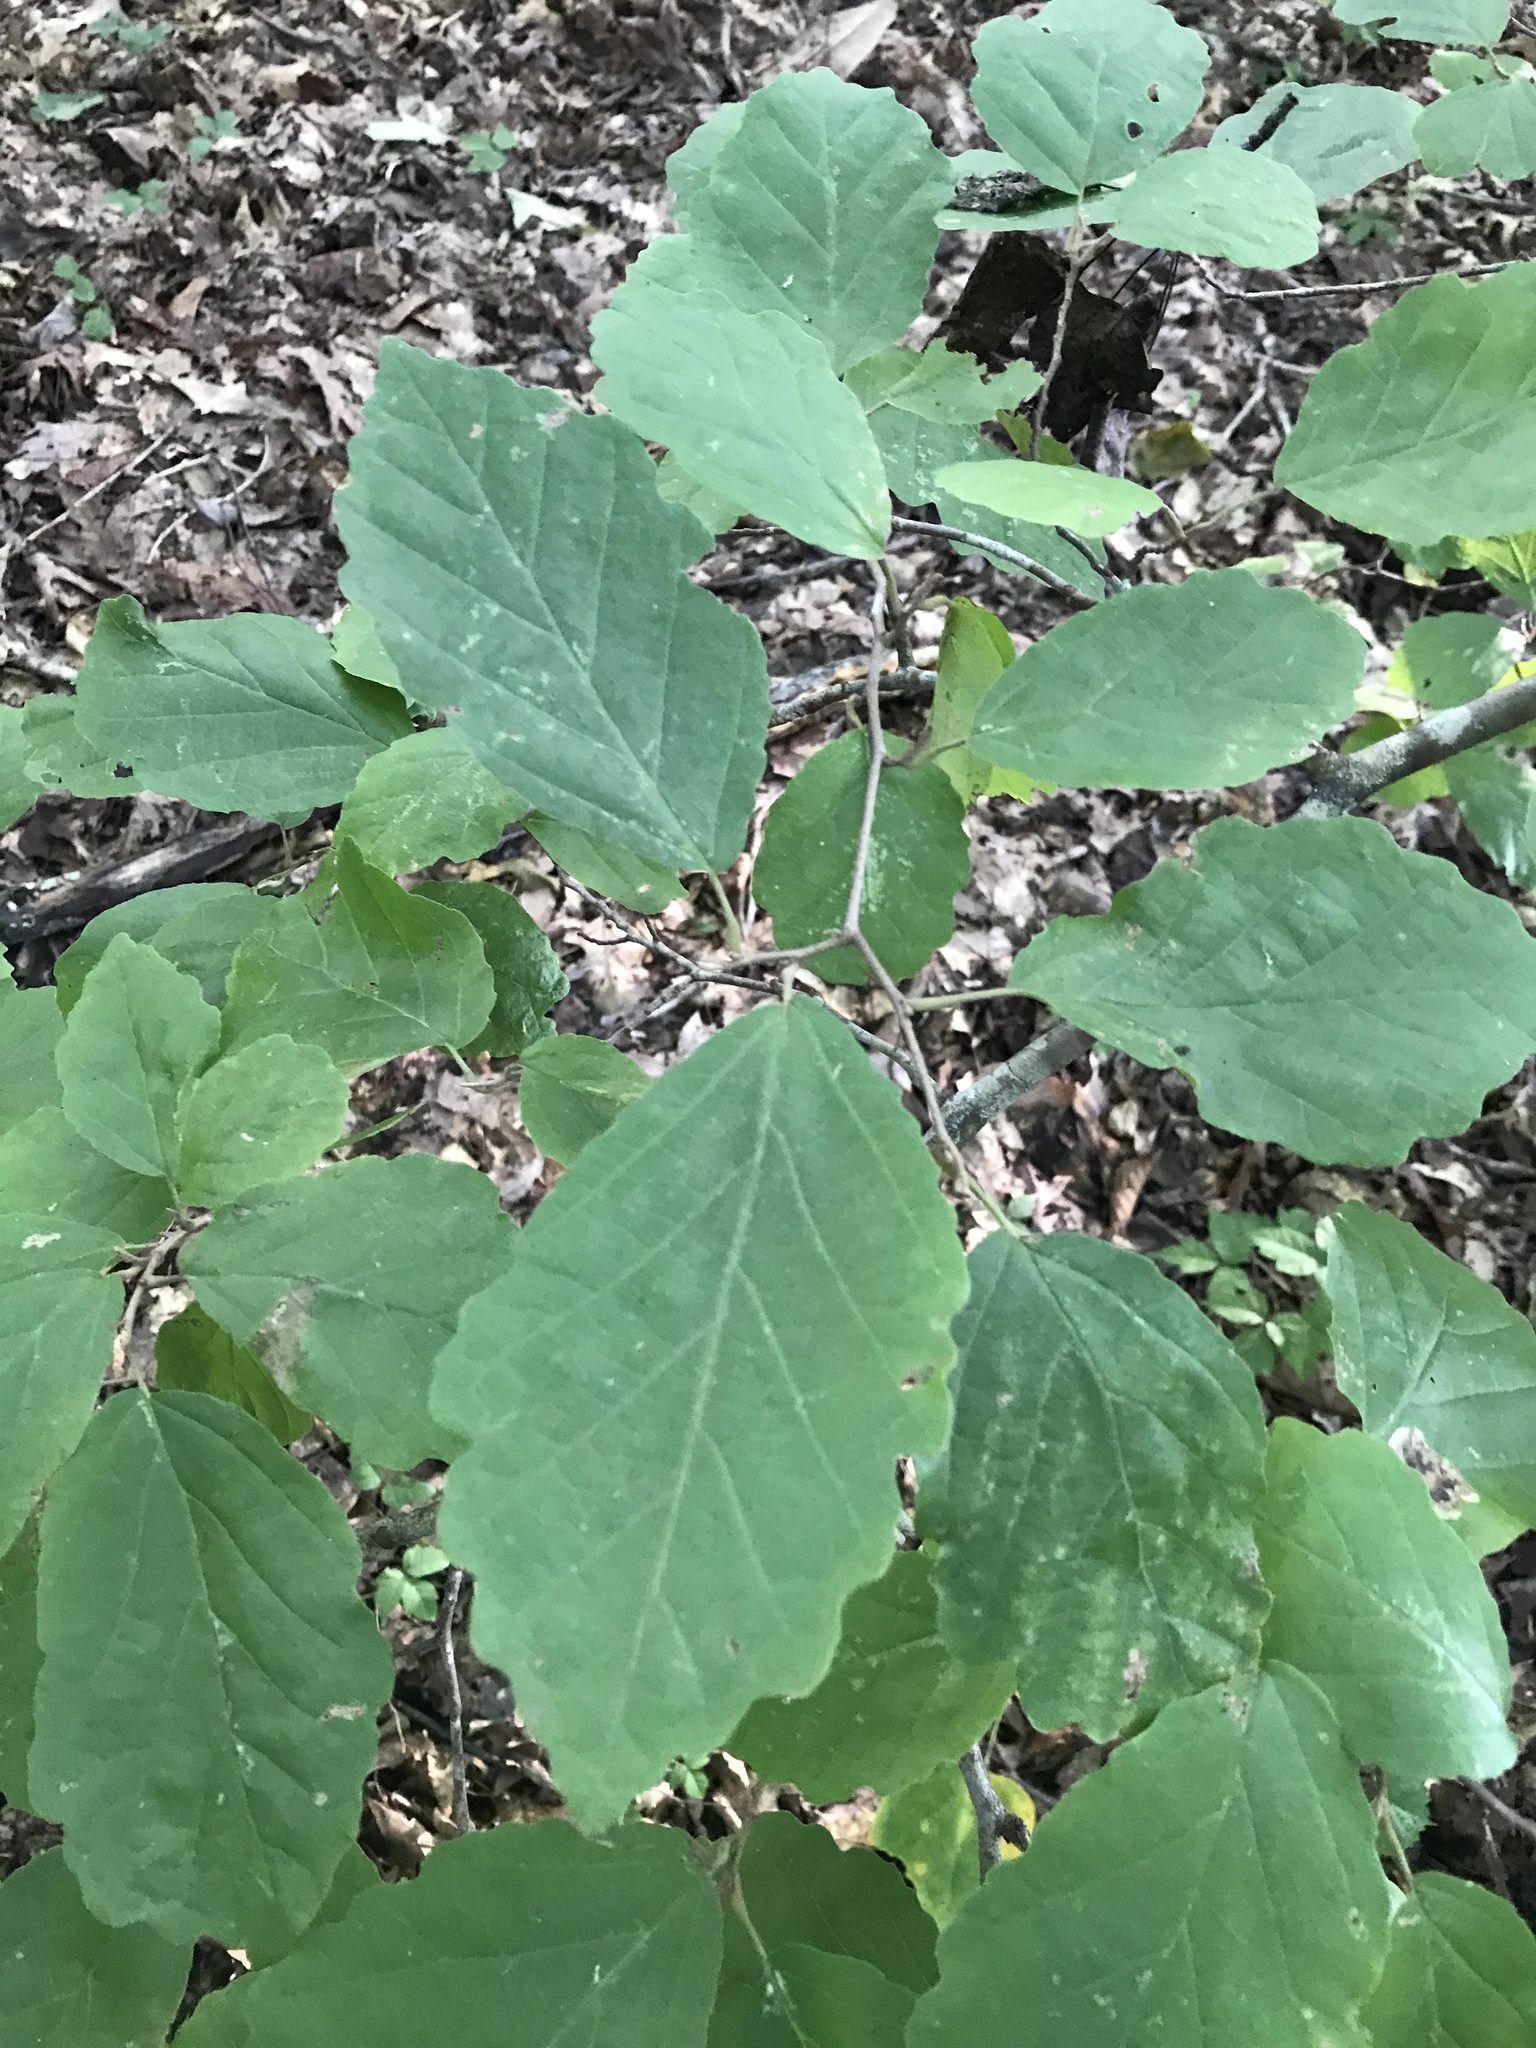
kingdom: Plantae
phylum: Tracheophyta
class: Magnoliopsida
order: Saxifragales
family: Hamamelidaceae
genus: Hamamelis
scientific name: Hamamelis virginiana
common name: Witch-hazel
